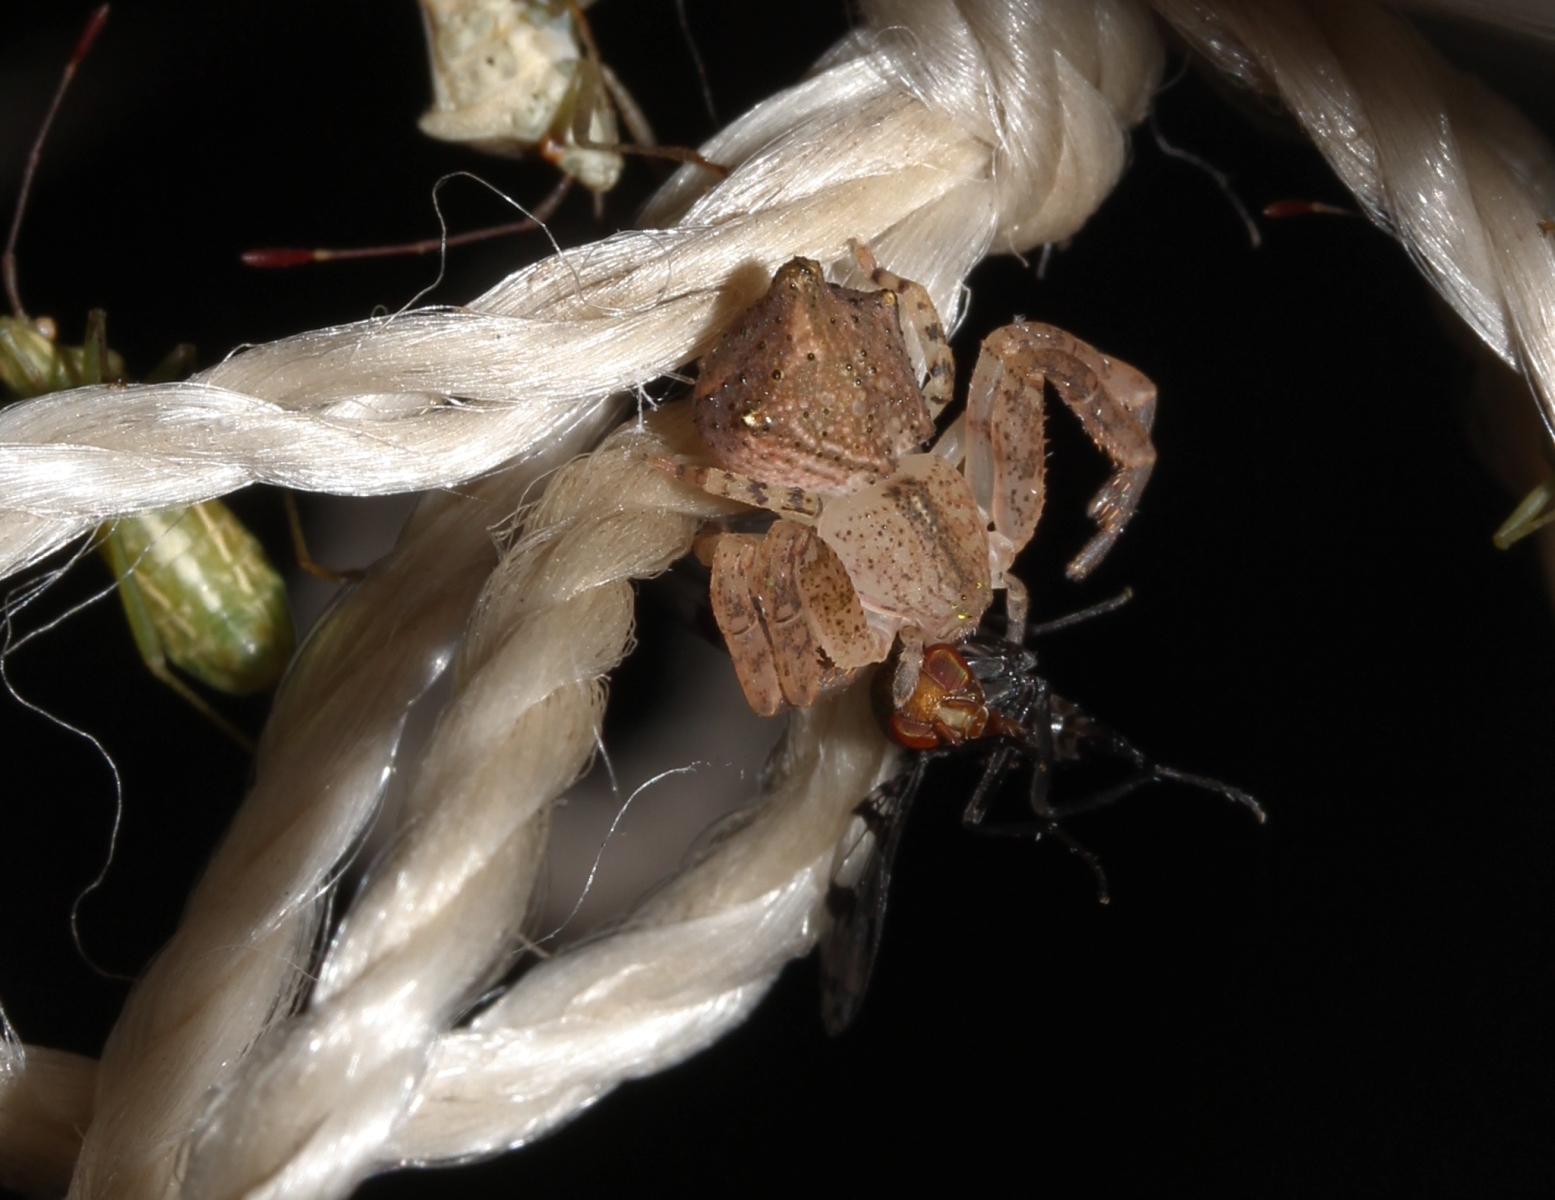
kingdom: Animalia
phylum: Arthropoda
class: Arachnida
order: Araneae
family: Thomisidae
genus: Epicadus
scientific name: Epicadus taczanowskii
